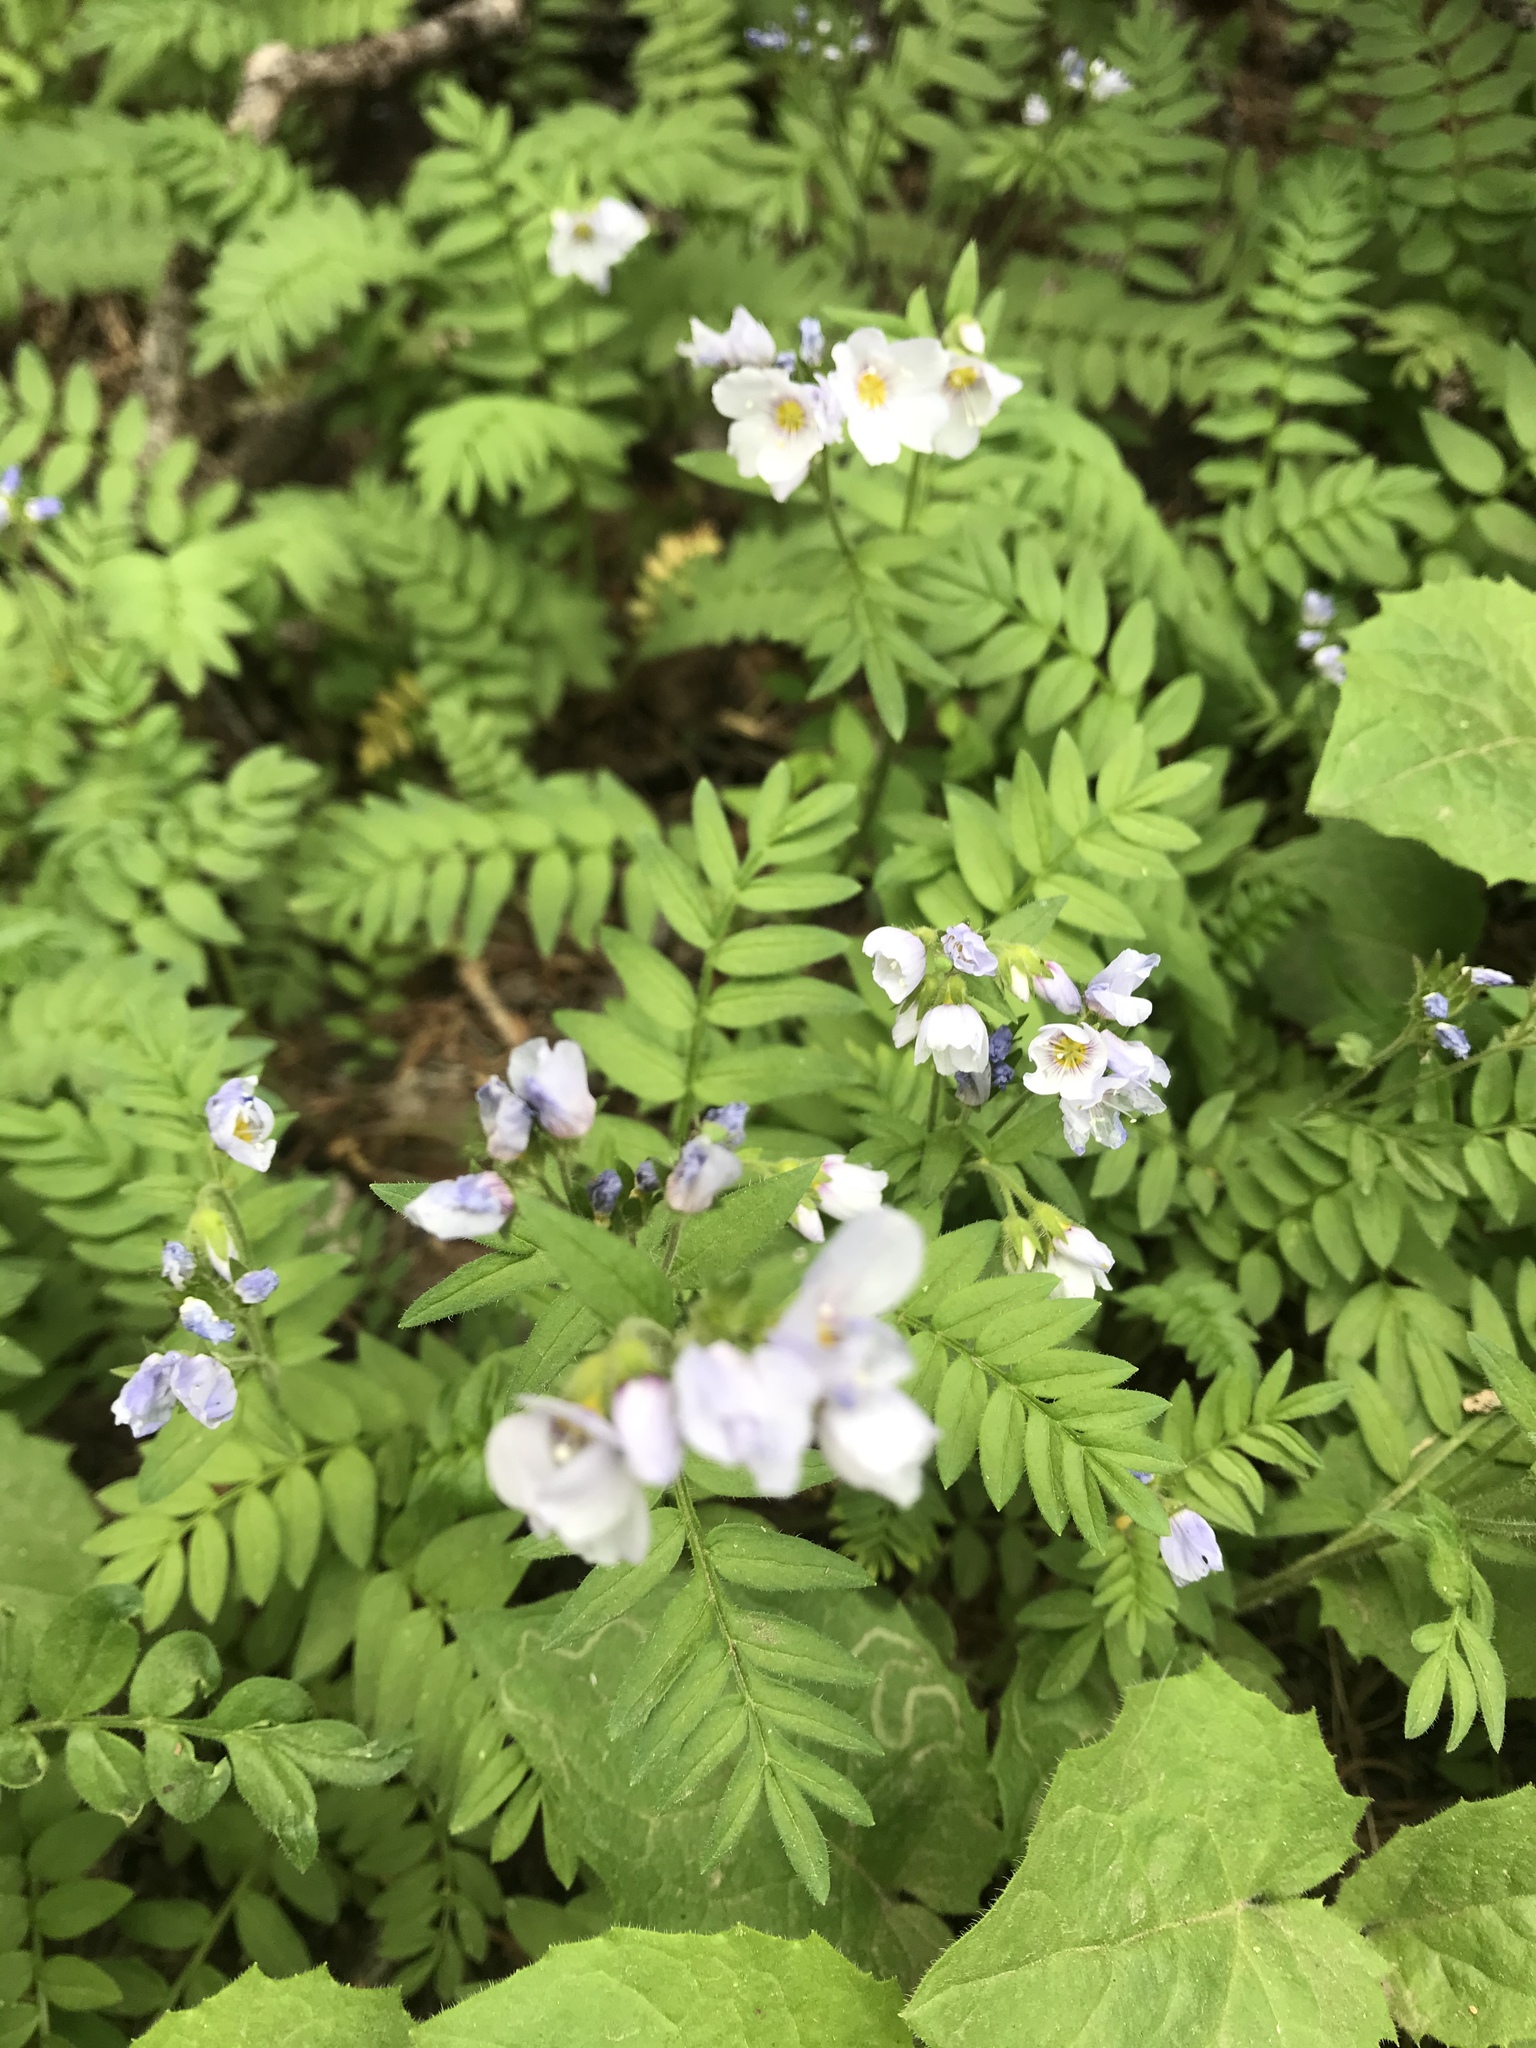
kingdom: Plantae
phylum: Tracheophyta
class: Magnoliopsida
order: Ericales
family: Polemoniaceae
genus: Polemonium
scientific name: Polemonium pulcherrimum
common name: Short jacob's-ladder
